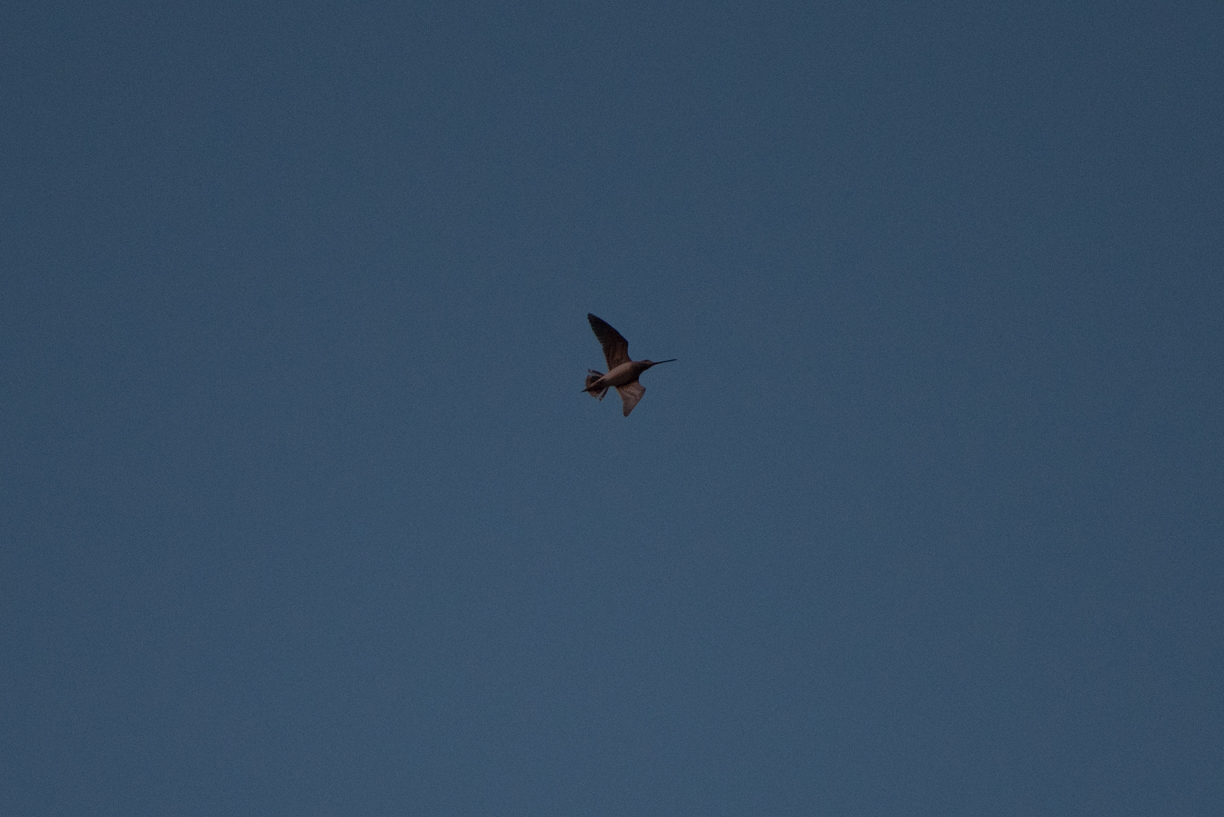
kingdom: Animalia
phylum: Chordata
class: Aves
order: Charadriiformes
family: Scolopacidae
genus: Gallinago
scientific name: Gallinago gallinago
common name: Common snipe
